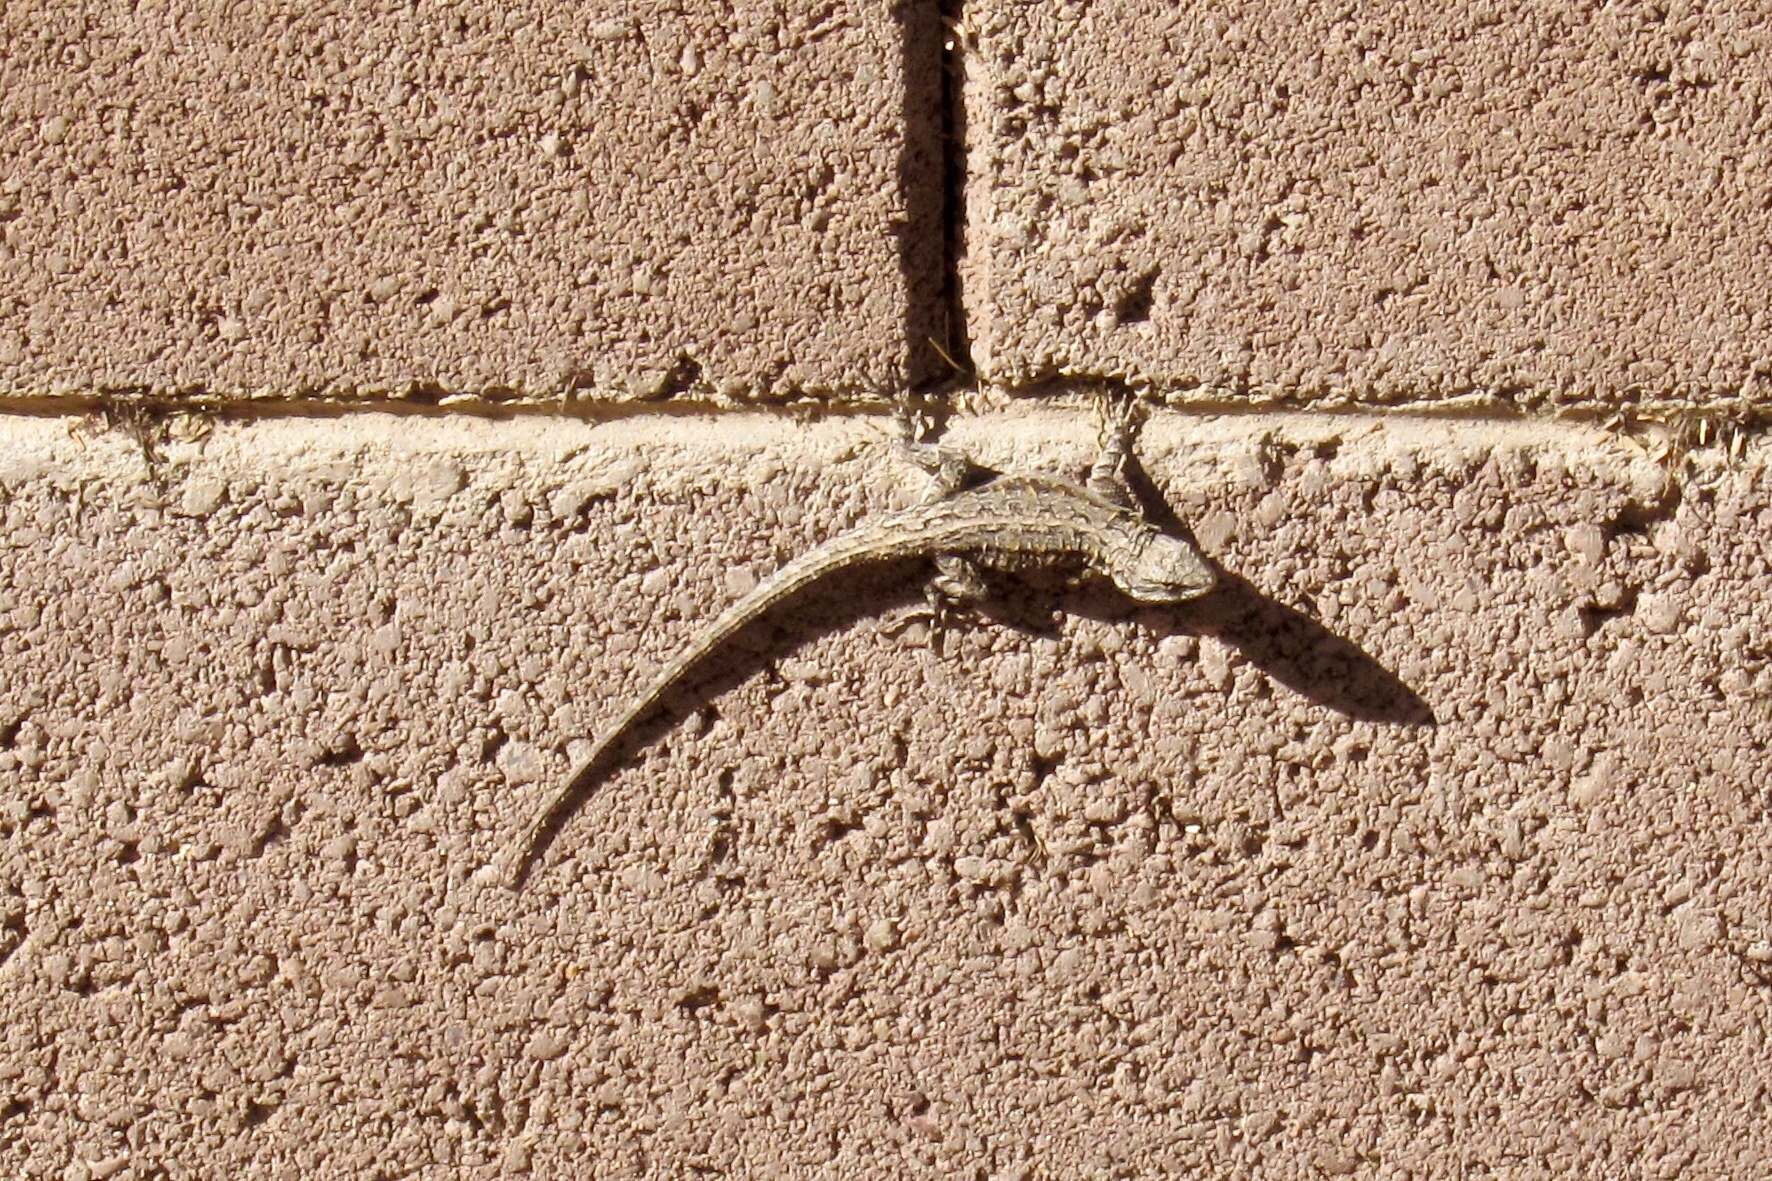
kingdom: Animalia
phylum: Chordata
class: Squamata
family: Phrynosomatidae
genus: Urosaurus
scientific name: Urosaurus ornatus
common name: Ornate tree lizard
